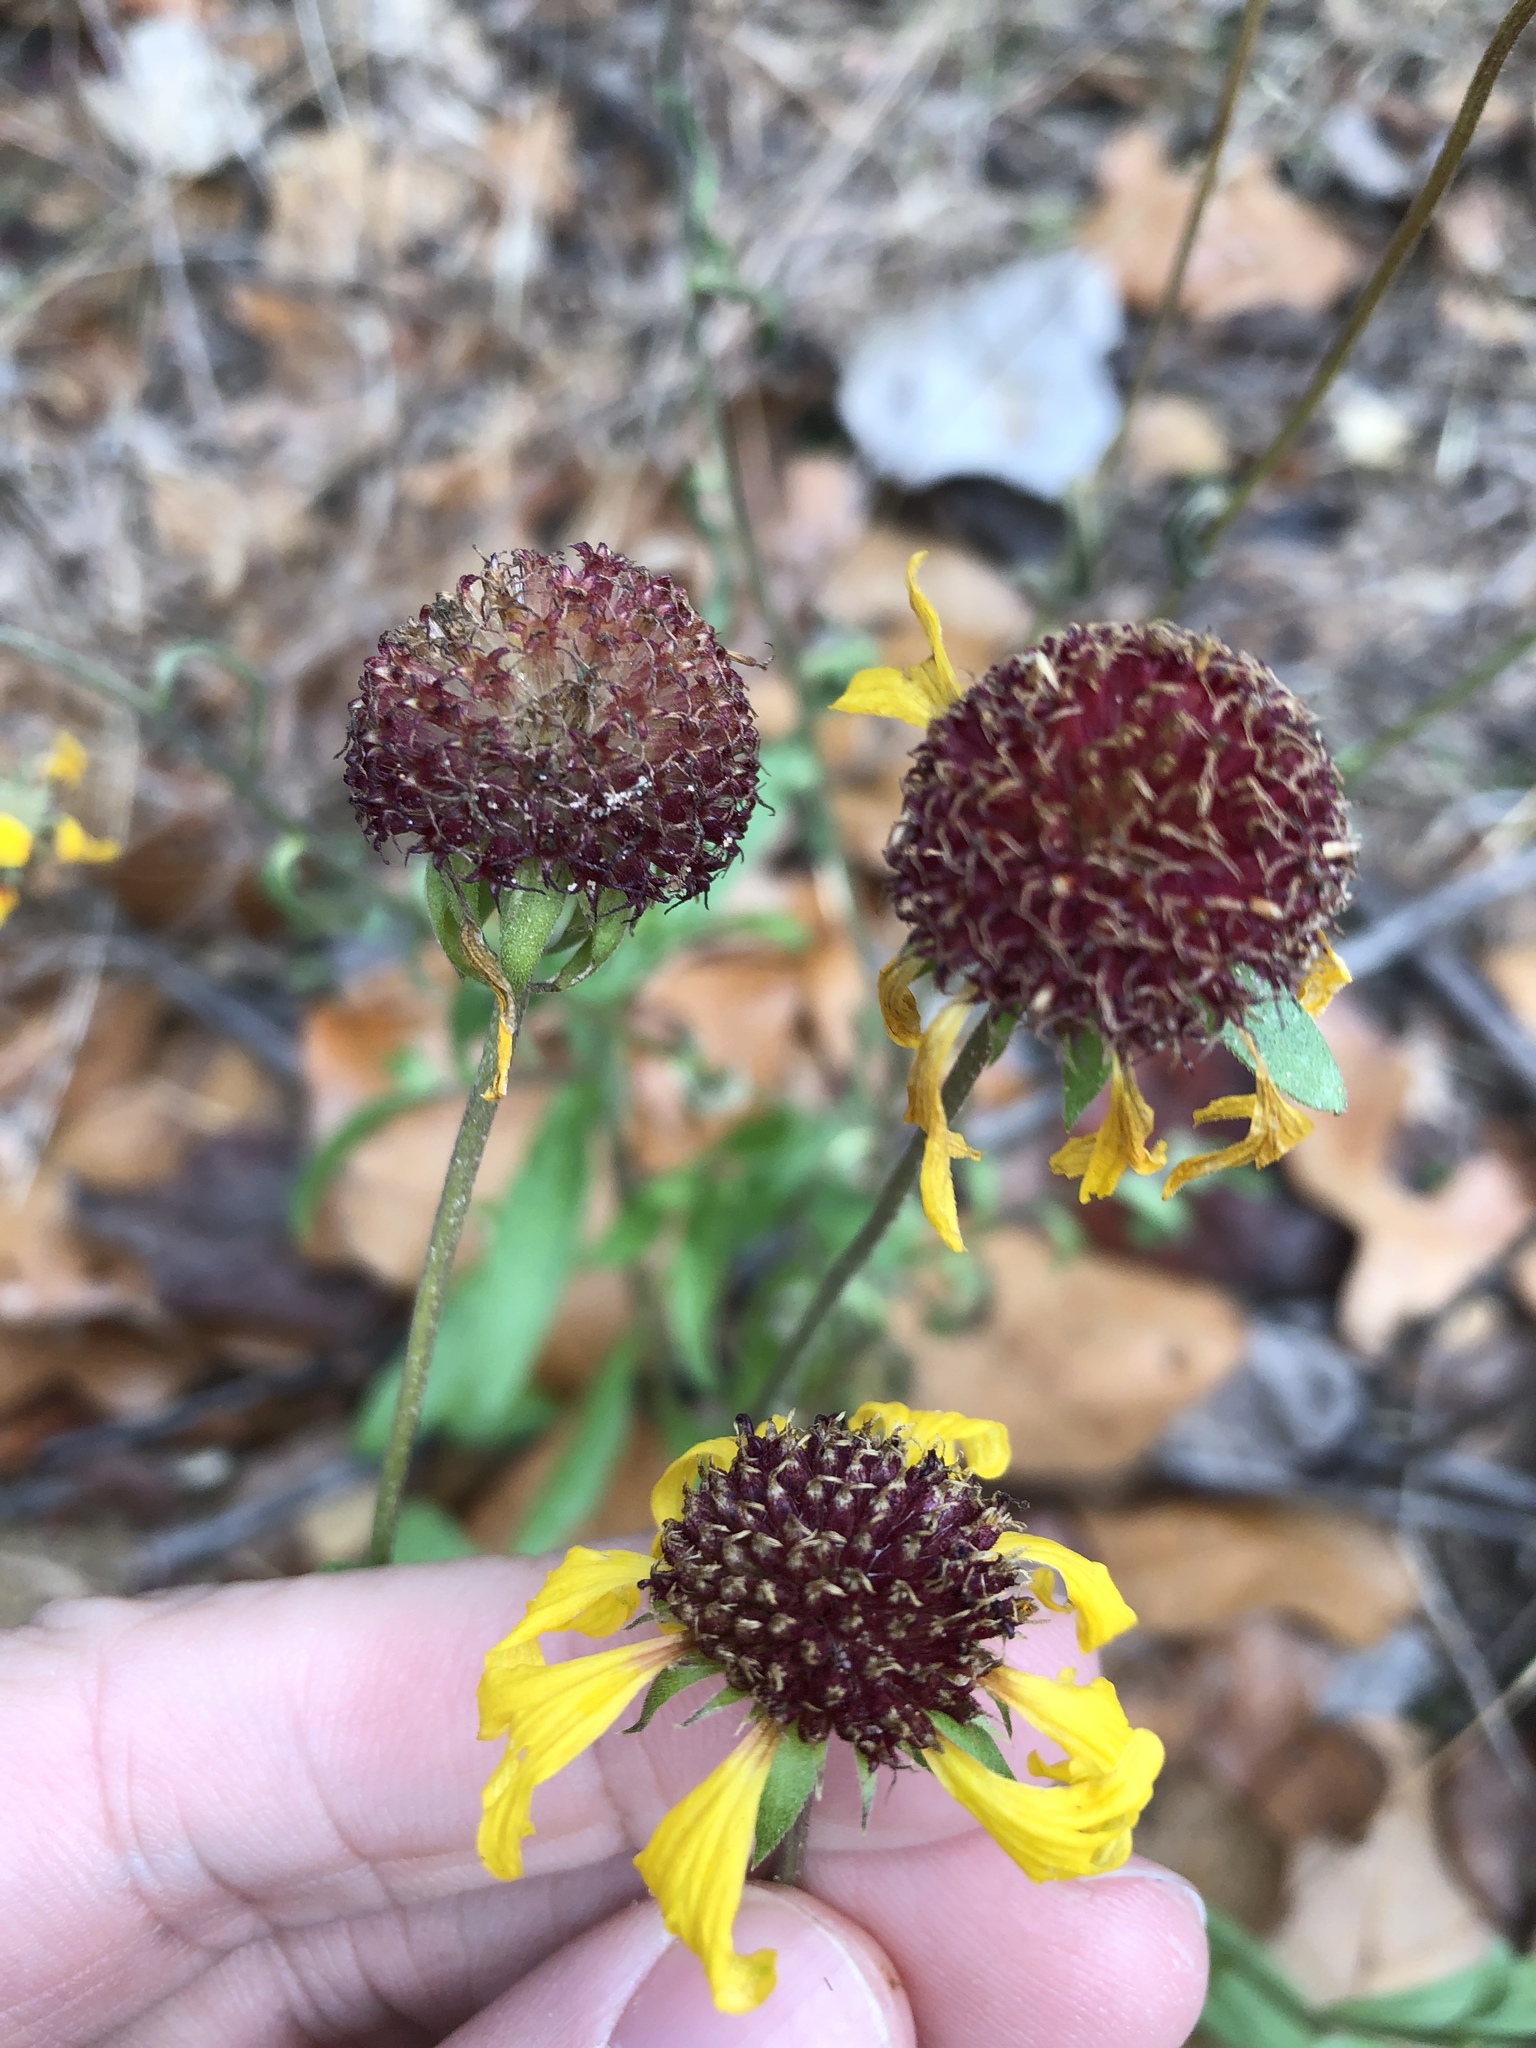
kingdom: Plantae
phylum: Tracheophyta
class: Magnoliopsida
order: Asterales
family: Asteraceae
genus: Gaillardia
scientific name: Gaillardia aestivalis
